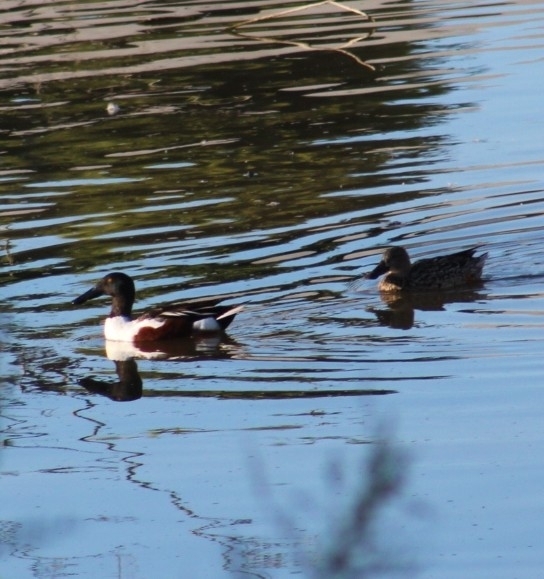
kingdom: Animalia
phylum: Chordata
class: Aves
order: Anseriformes
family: Anatidae
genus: Spatula
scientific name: Spatula clypeata
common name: Northern shoveler
